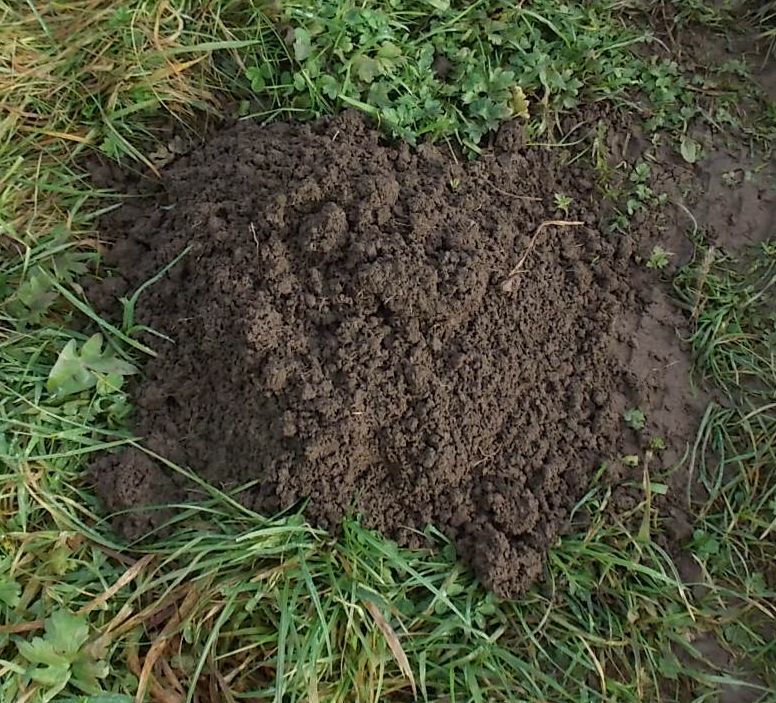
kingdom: Animalia
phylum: Chordata
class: Mammalia
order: Soricomorpha
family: Talpidae
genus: Talpa
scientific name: Talpa europaea
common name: European mole
